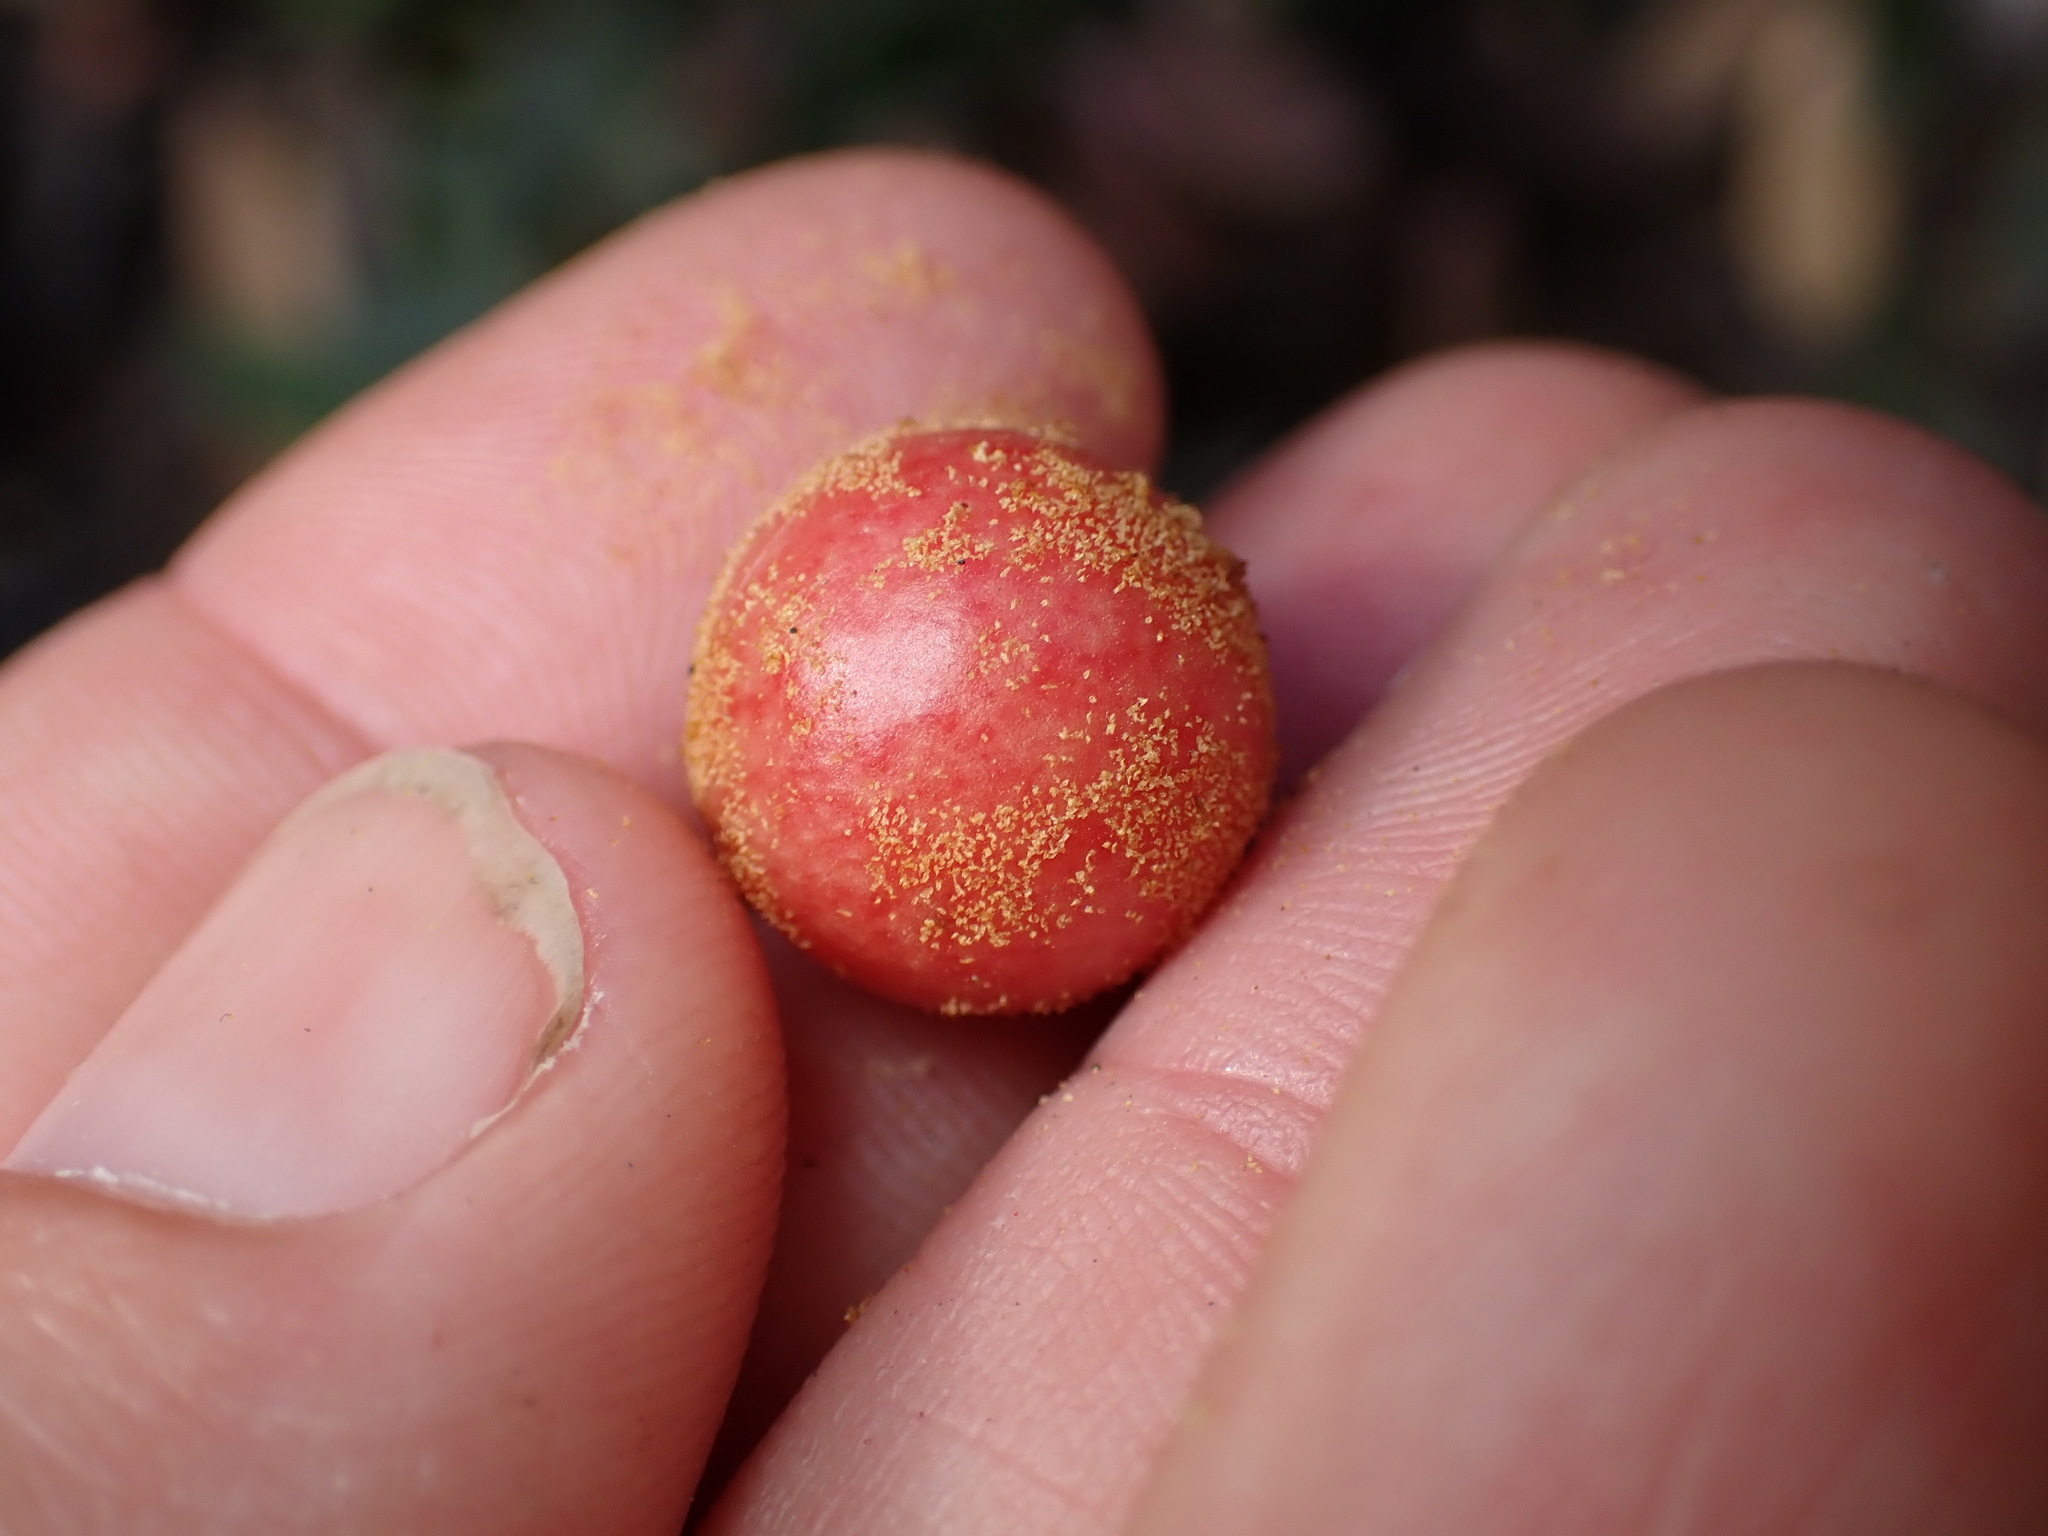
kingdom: Animalia
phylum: Arthropoda
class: Insecta
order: Hymenoptera
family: Cynipidae
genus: Synergus
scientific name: Synergus castanopsidis
